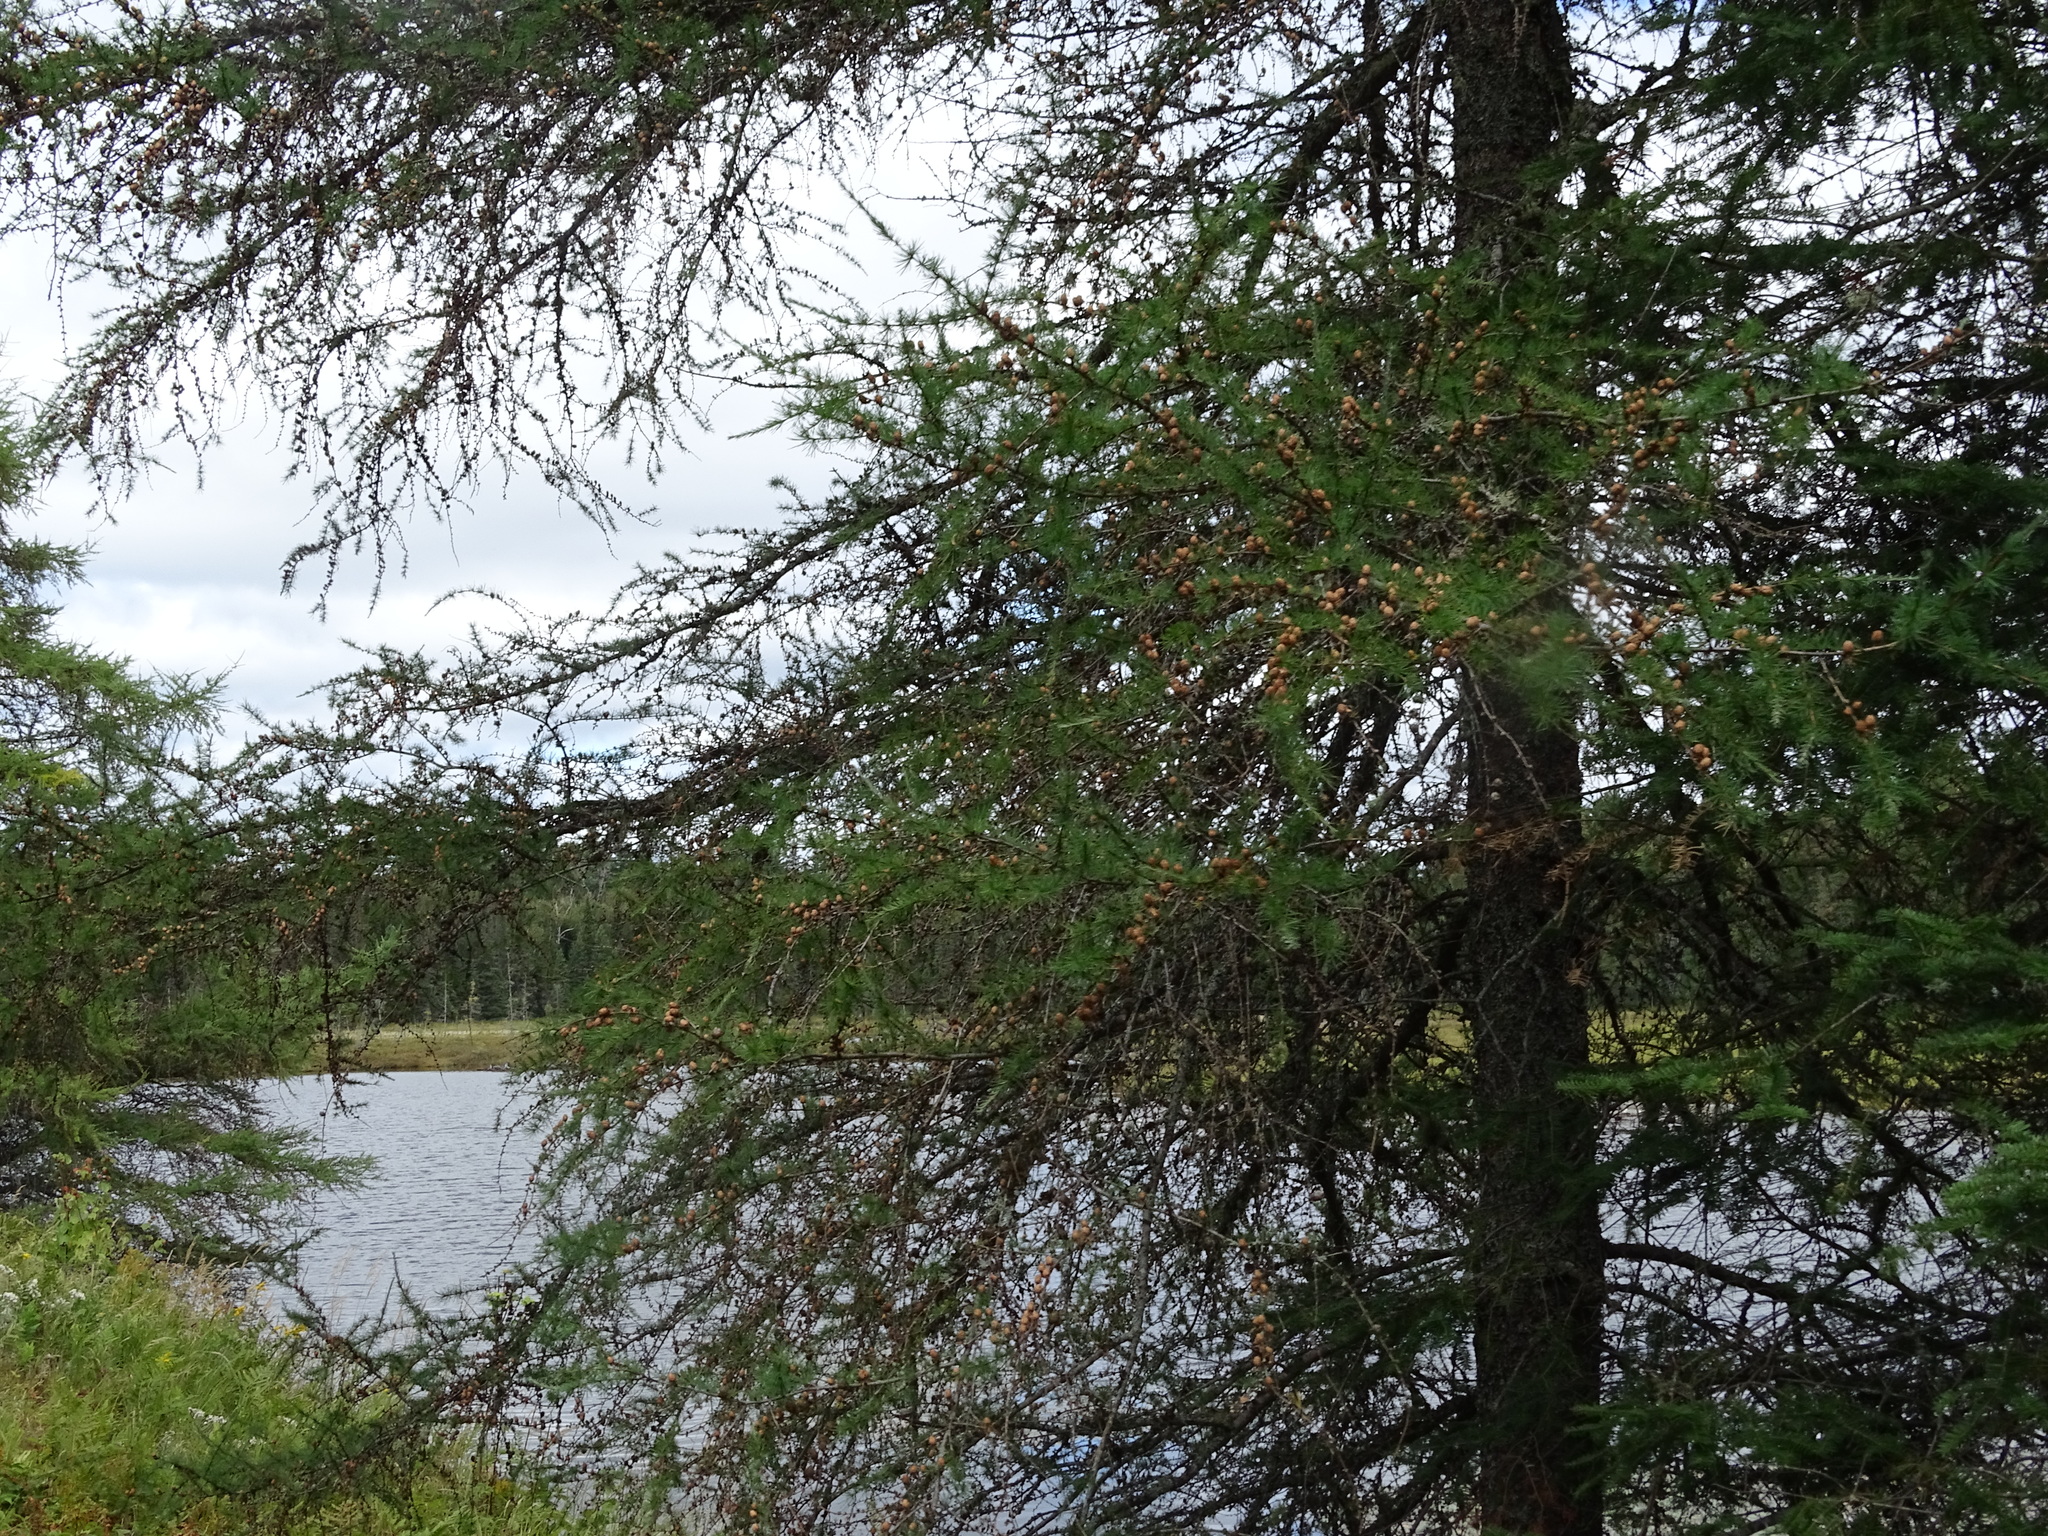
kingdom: Plantae
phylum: Tracheophyta
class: Pinopsida
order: Pinales
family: Pinaceae
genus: Larix
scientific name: Larix laricina
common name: American larch
